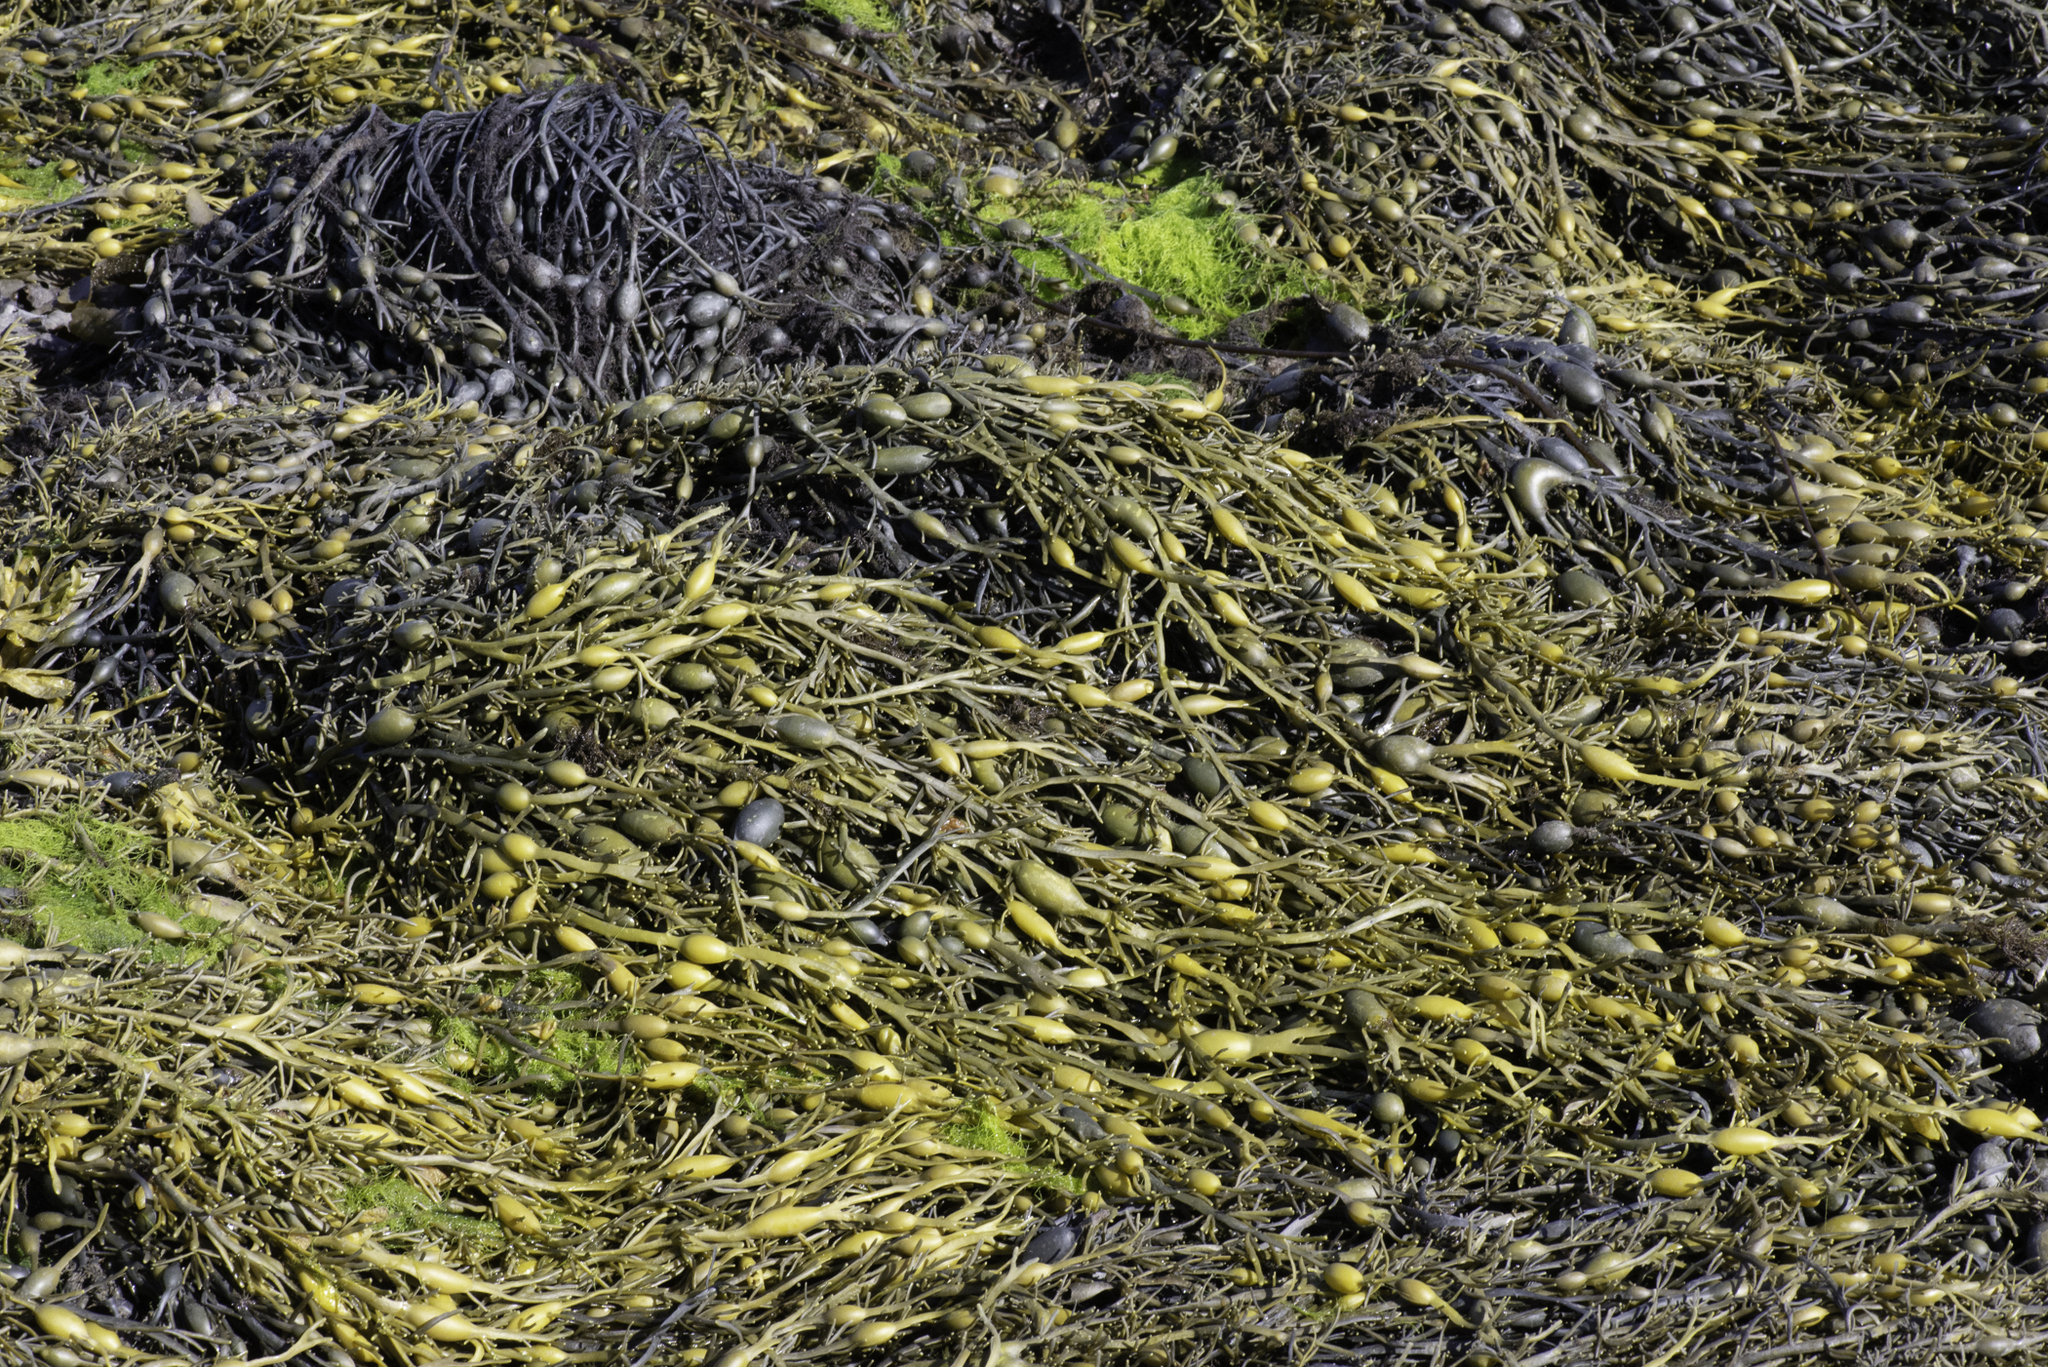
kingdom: Chromista
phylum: Ochrophyta
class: Phaeophyceae
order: Fucales
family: Fucaceae
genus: Ascophyllum
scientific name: Ascophyllum nodosum
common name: Knotted wrack
